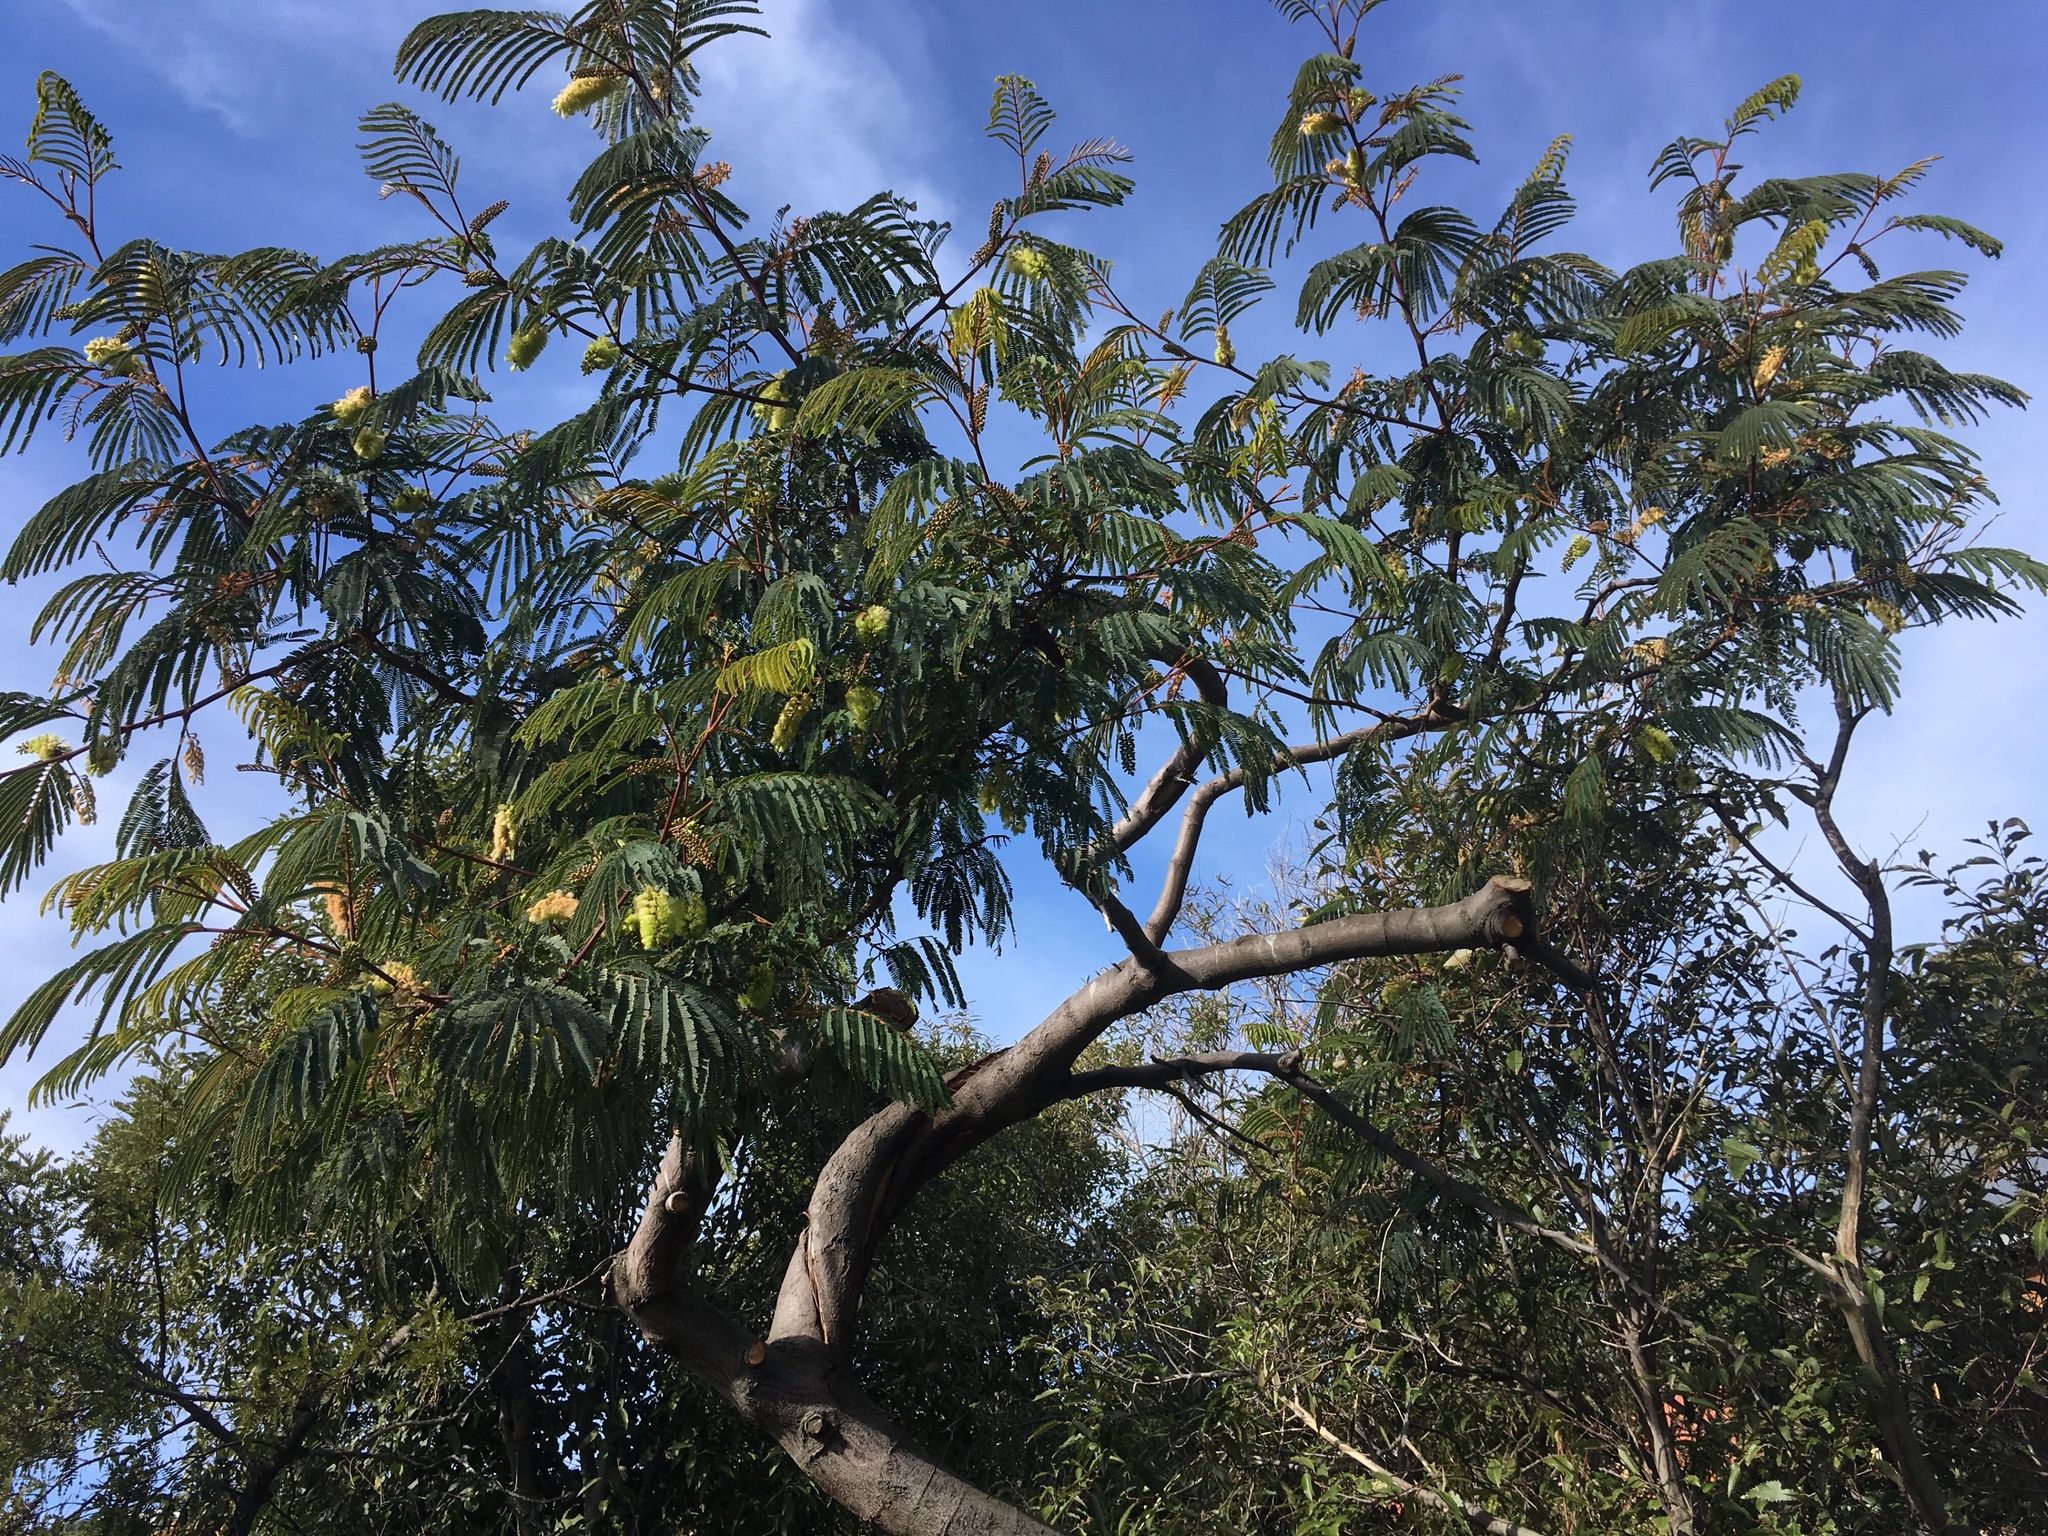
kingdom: Plantae
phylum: Tracheophyta
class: Magnoliopsida
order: Fabales
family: Fabaceae
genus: Paraserianthes
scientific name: Paraserianthes lophantha
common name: Plume albizia
